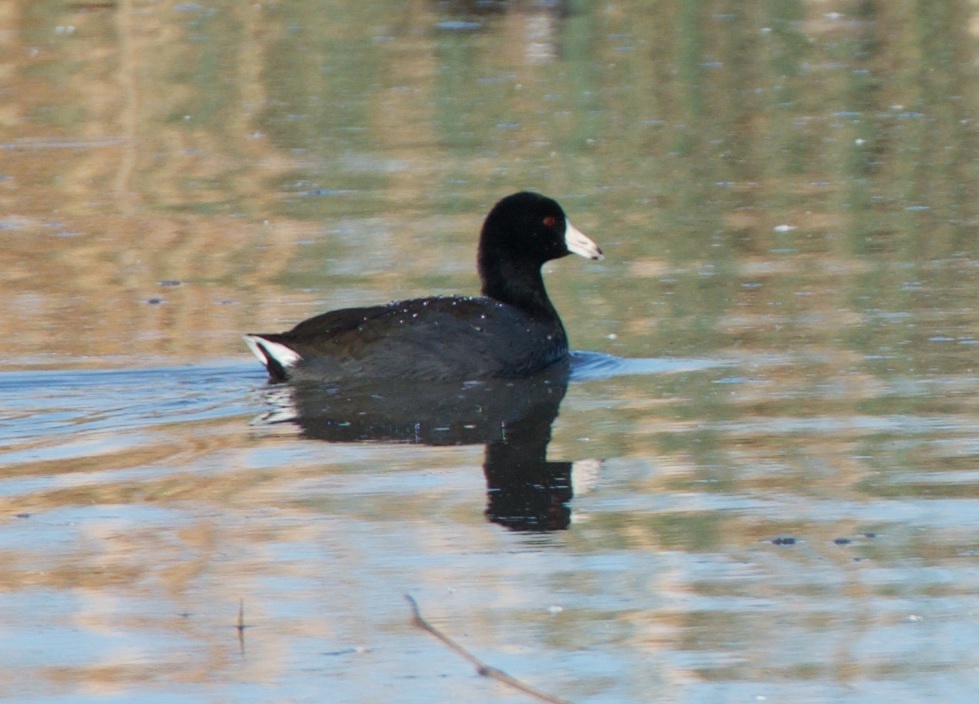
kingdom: Animalia
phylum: Chordata
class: Aves
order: Gruiformes
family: Rallidae
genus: Fulica
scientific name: Fulica americana
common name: American coot
